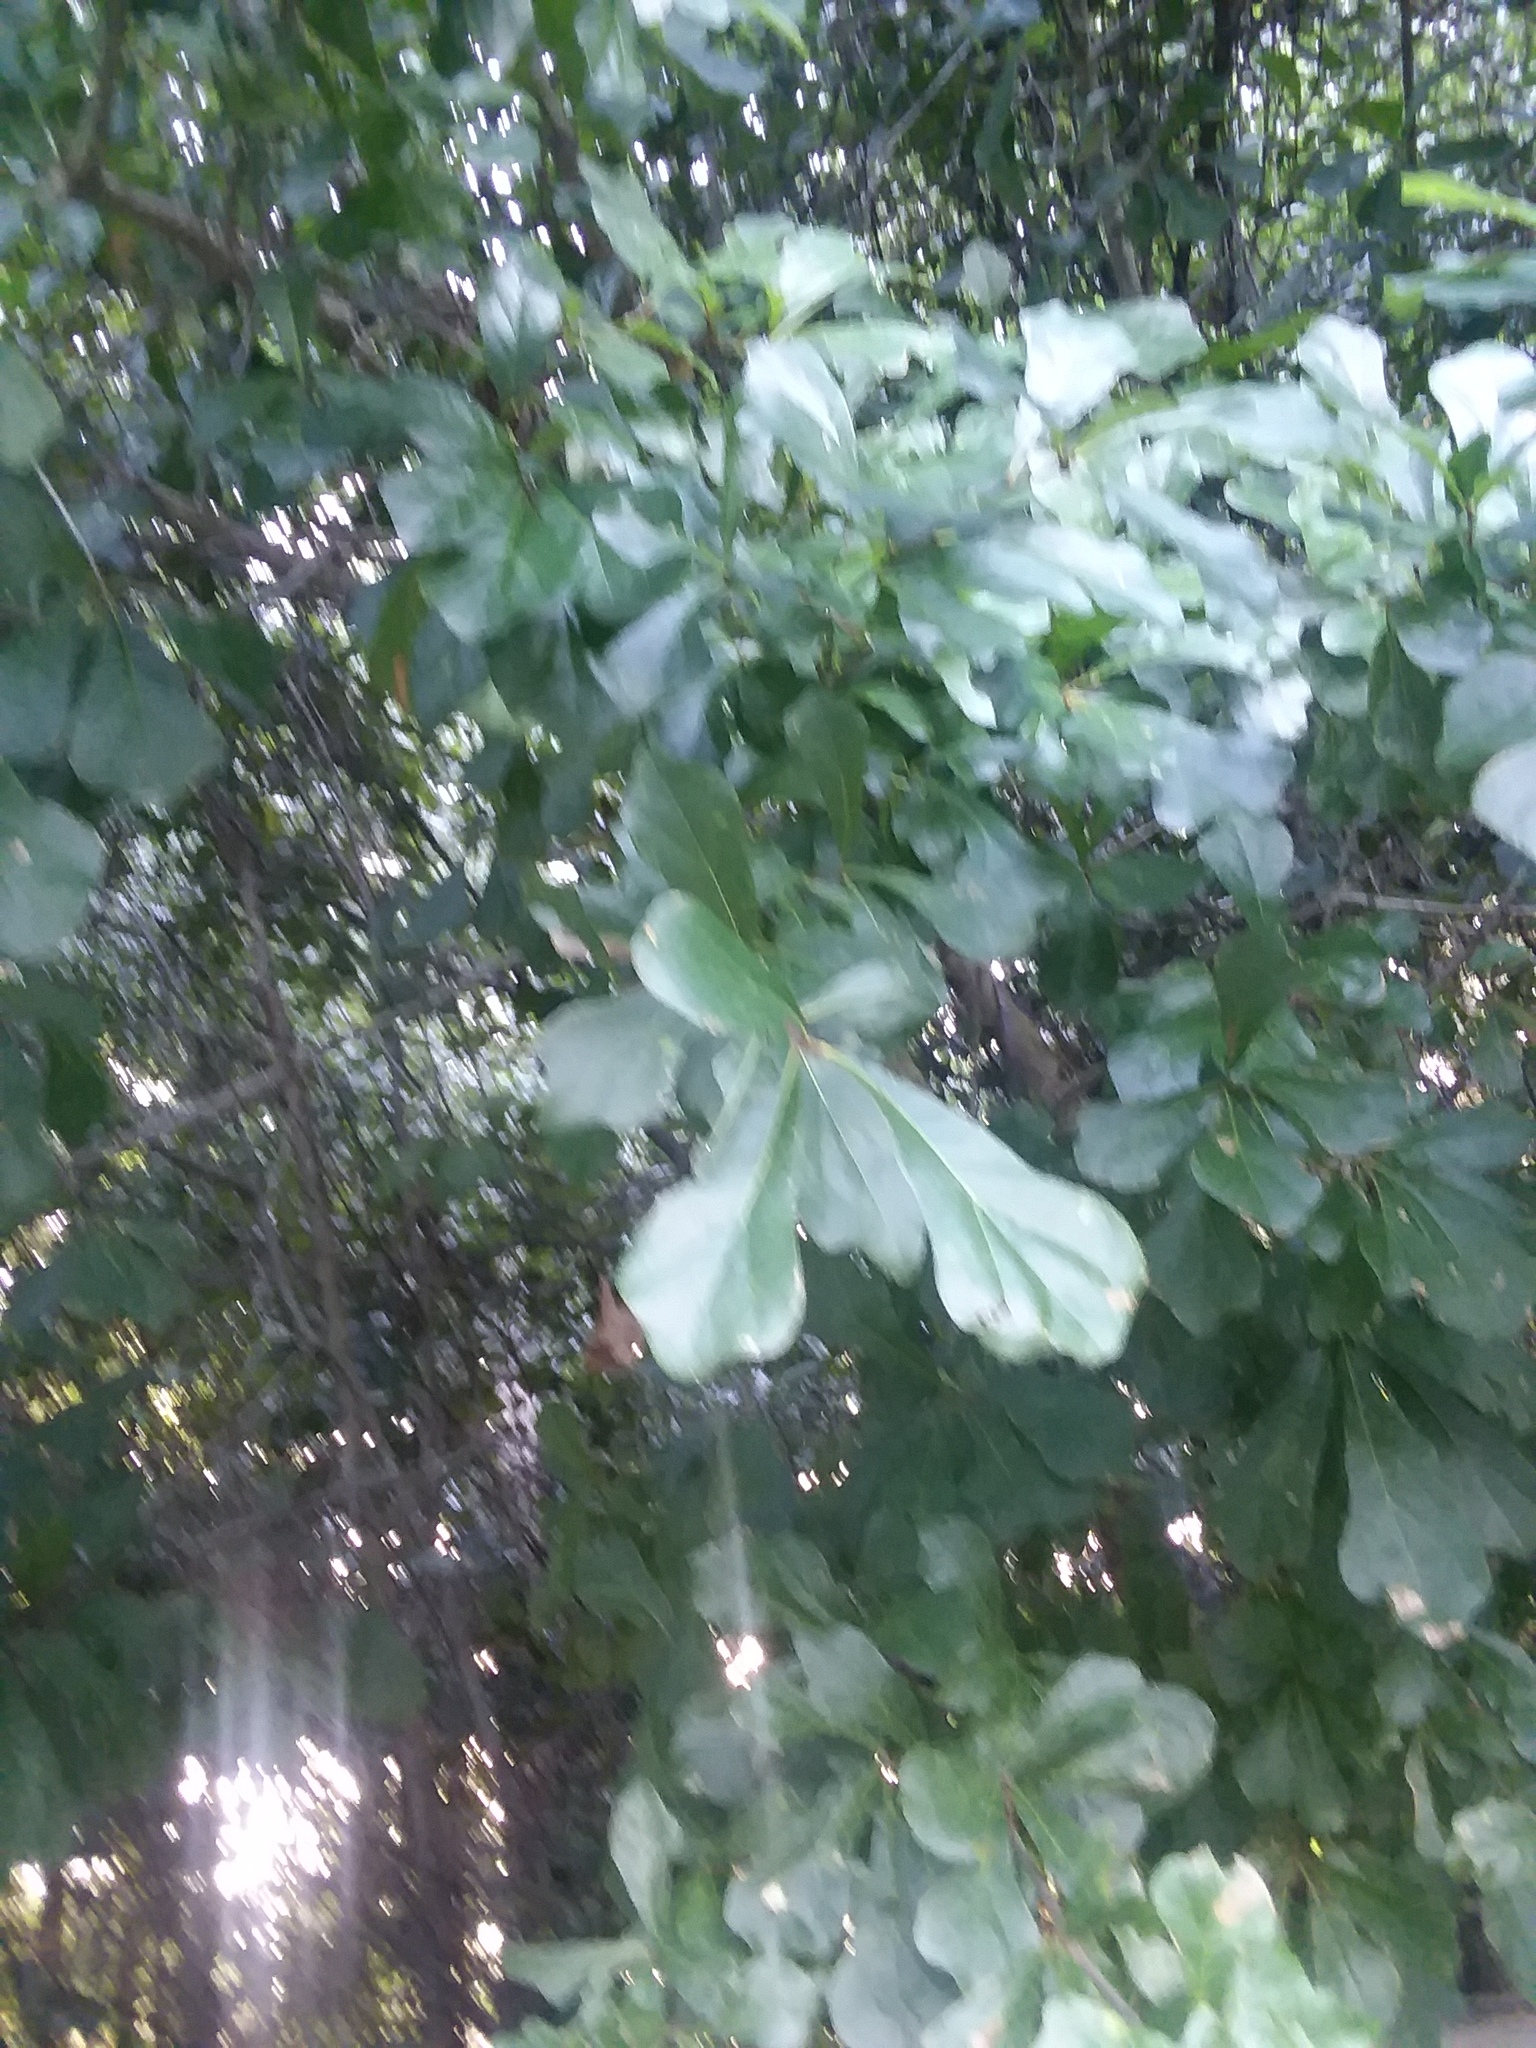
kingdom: Plantae
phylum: Tracheophyta
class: Magnoliopsida
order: Fagales
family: Fagaceae
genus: Quercus
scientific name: Quercus nigra
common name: Water oak
